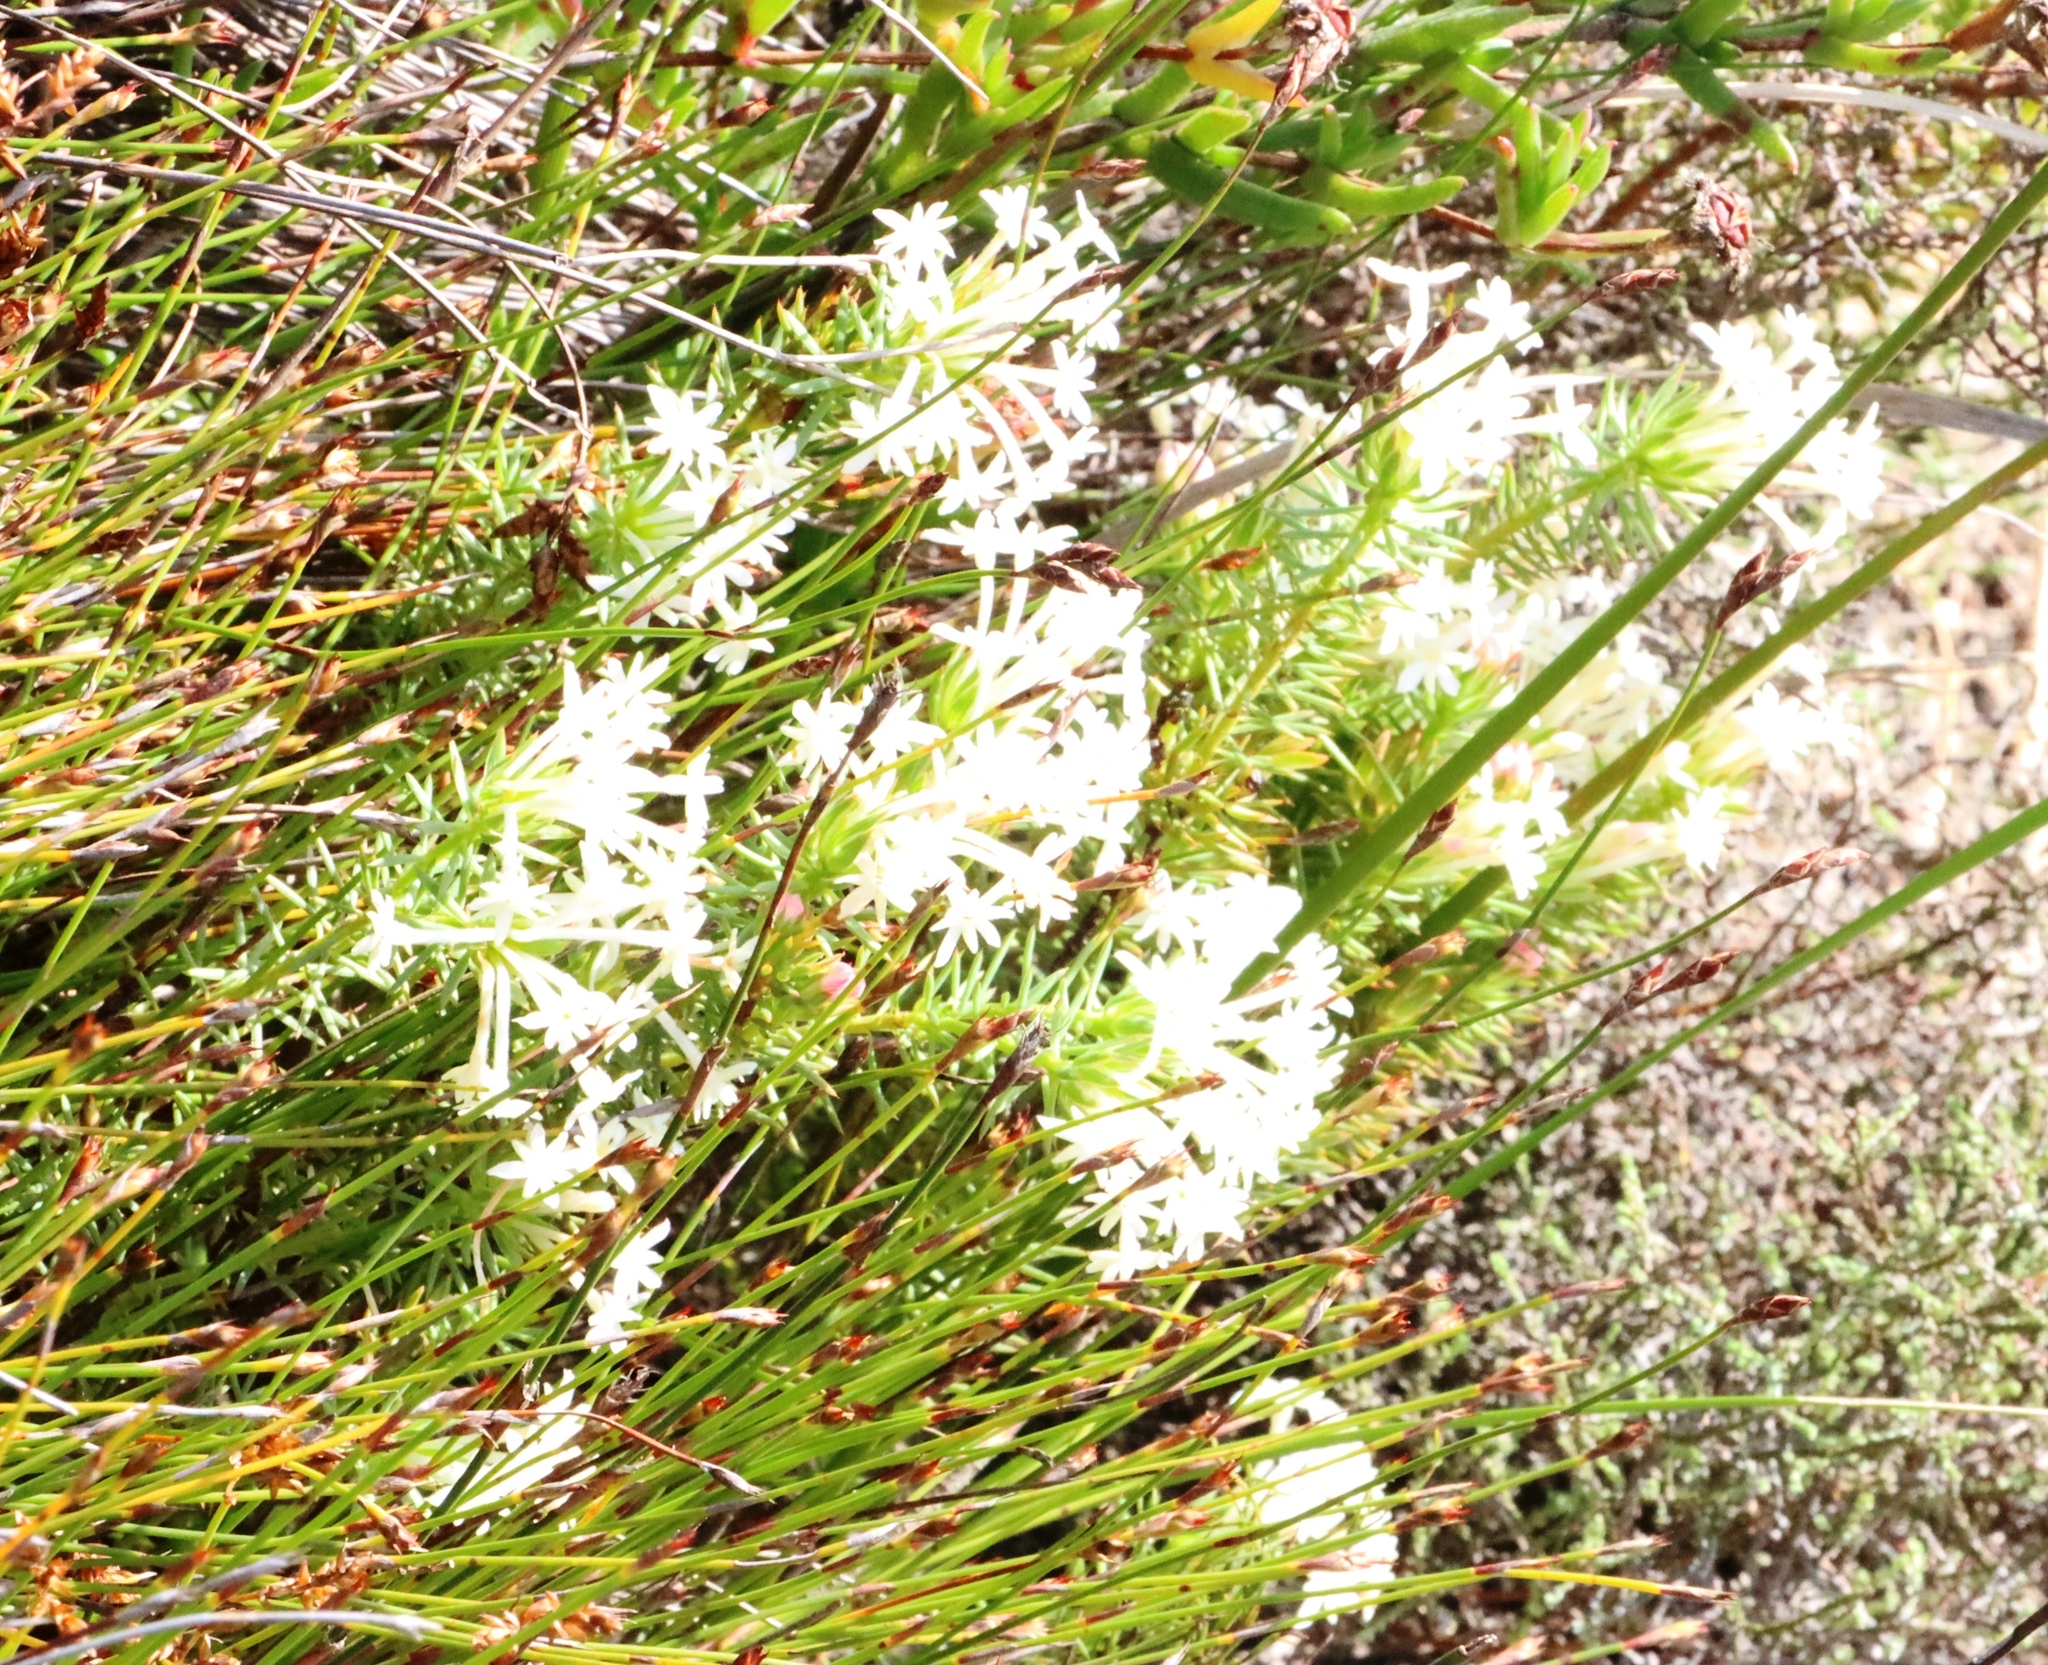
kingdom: Plantae
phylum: Tracheophyta
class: Magnoliopsida
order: Malvales
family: Thymelaeaceae
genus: Gnidia
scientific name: Gnidia pinifolia
